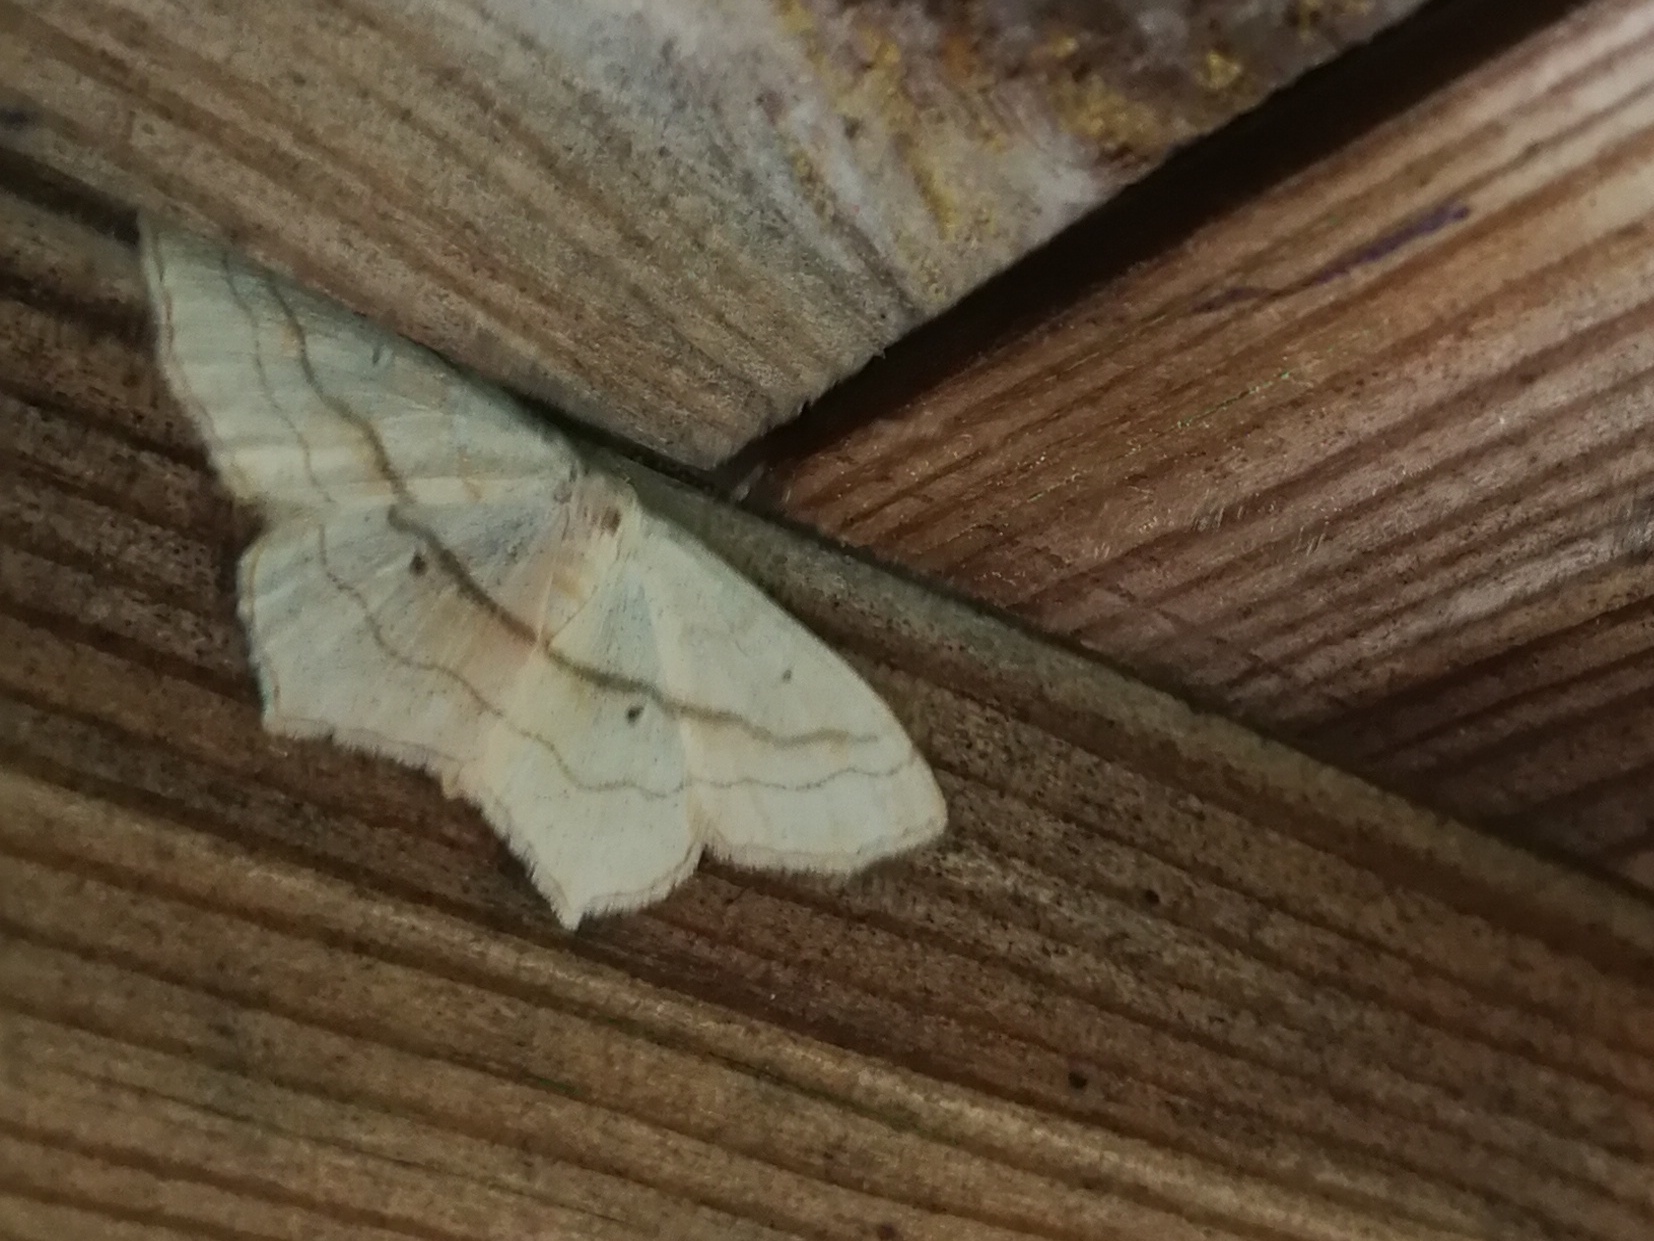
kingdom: Animalia
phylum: Arthropoda
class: Insecta
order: Lepidoptera
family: Geometridae
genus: Scopula
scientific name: Scopula imitaria
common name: Small blood-vein
